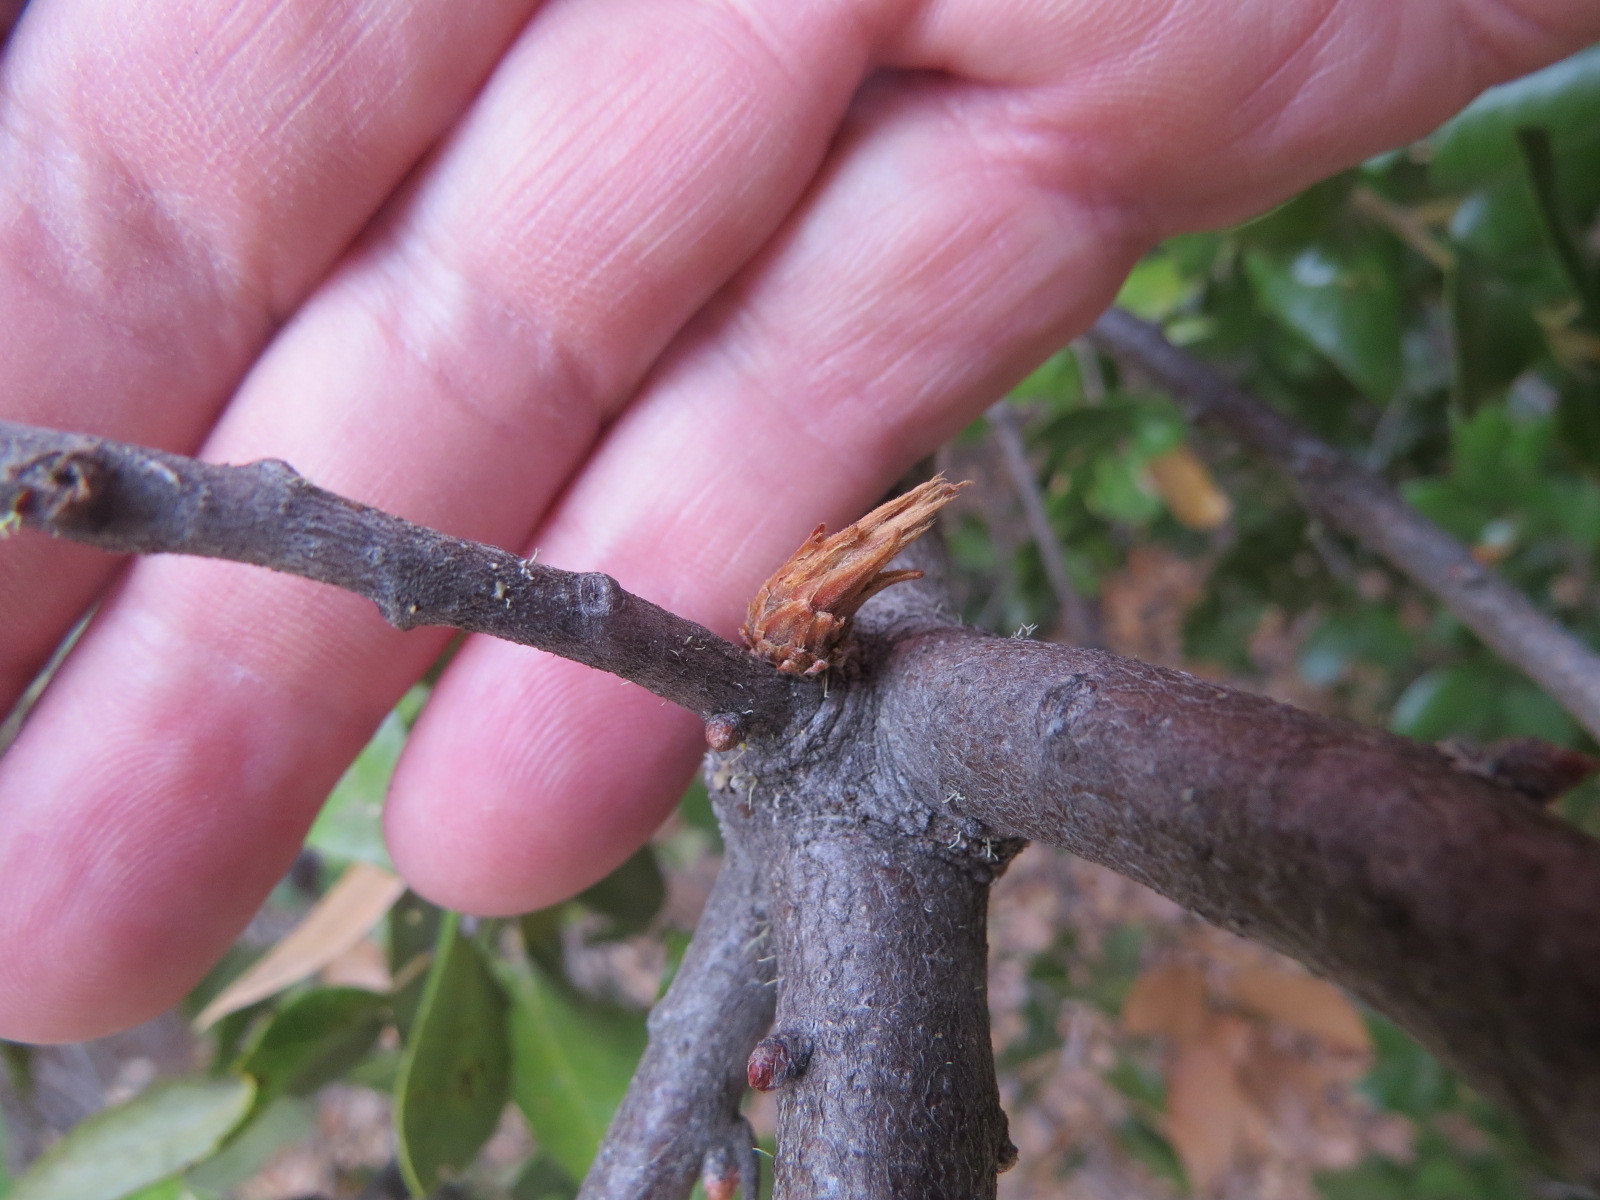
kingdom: Animalia
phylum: Arthropoda
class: Insecta
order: Hymenoptera
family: Cynipidae
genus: Andricus
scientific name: Andricus
